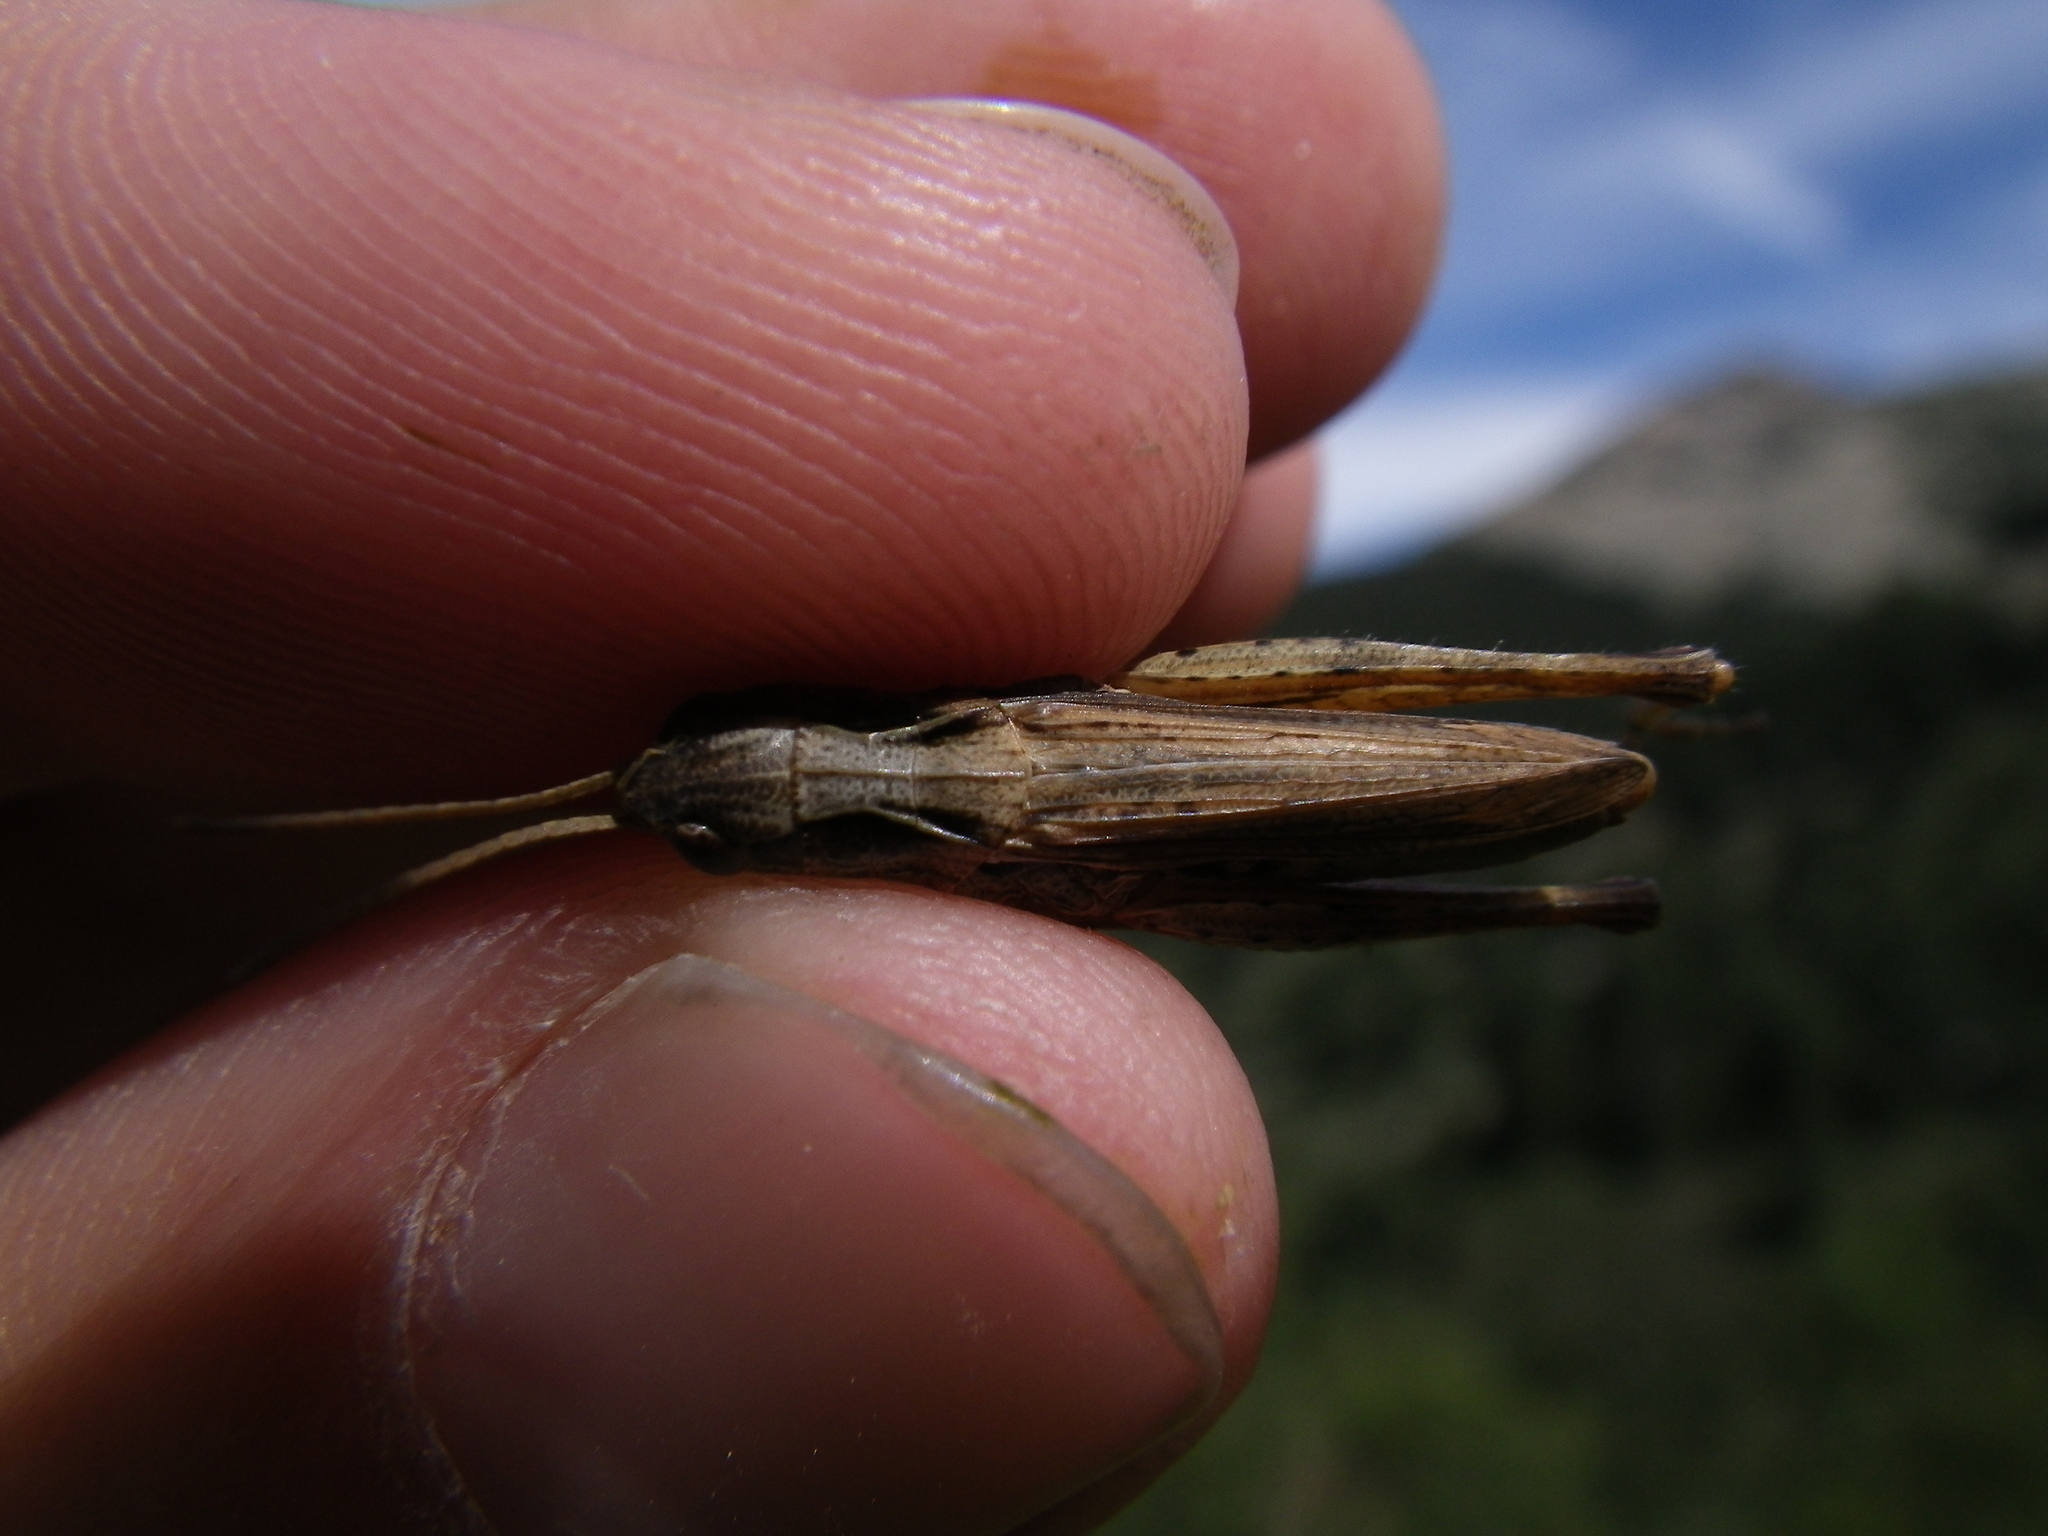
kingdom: Animalia
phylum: Arthropoda
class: Insecta
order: Orthoptera
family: Acrididae
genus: Chorthippus
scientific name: Chorthippus apricarius
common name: Upland field grasshopper
